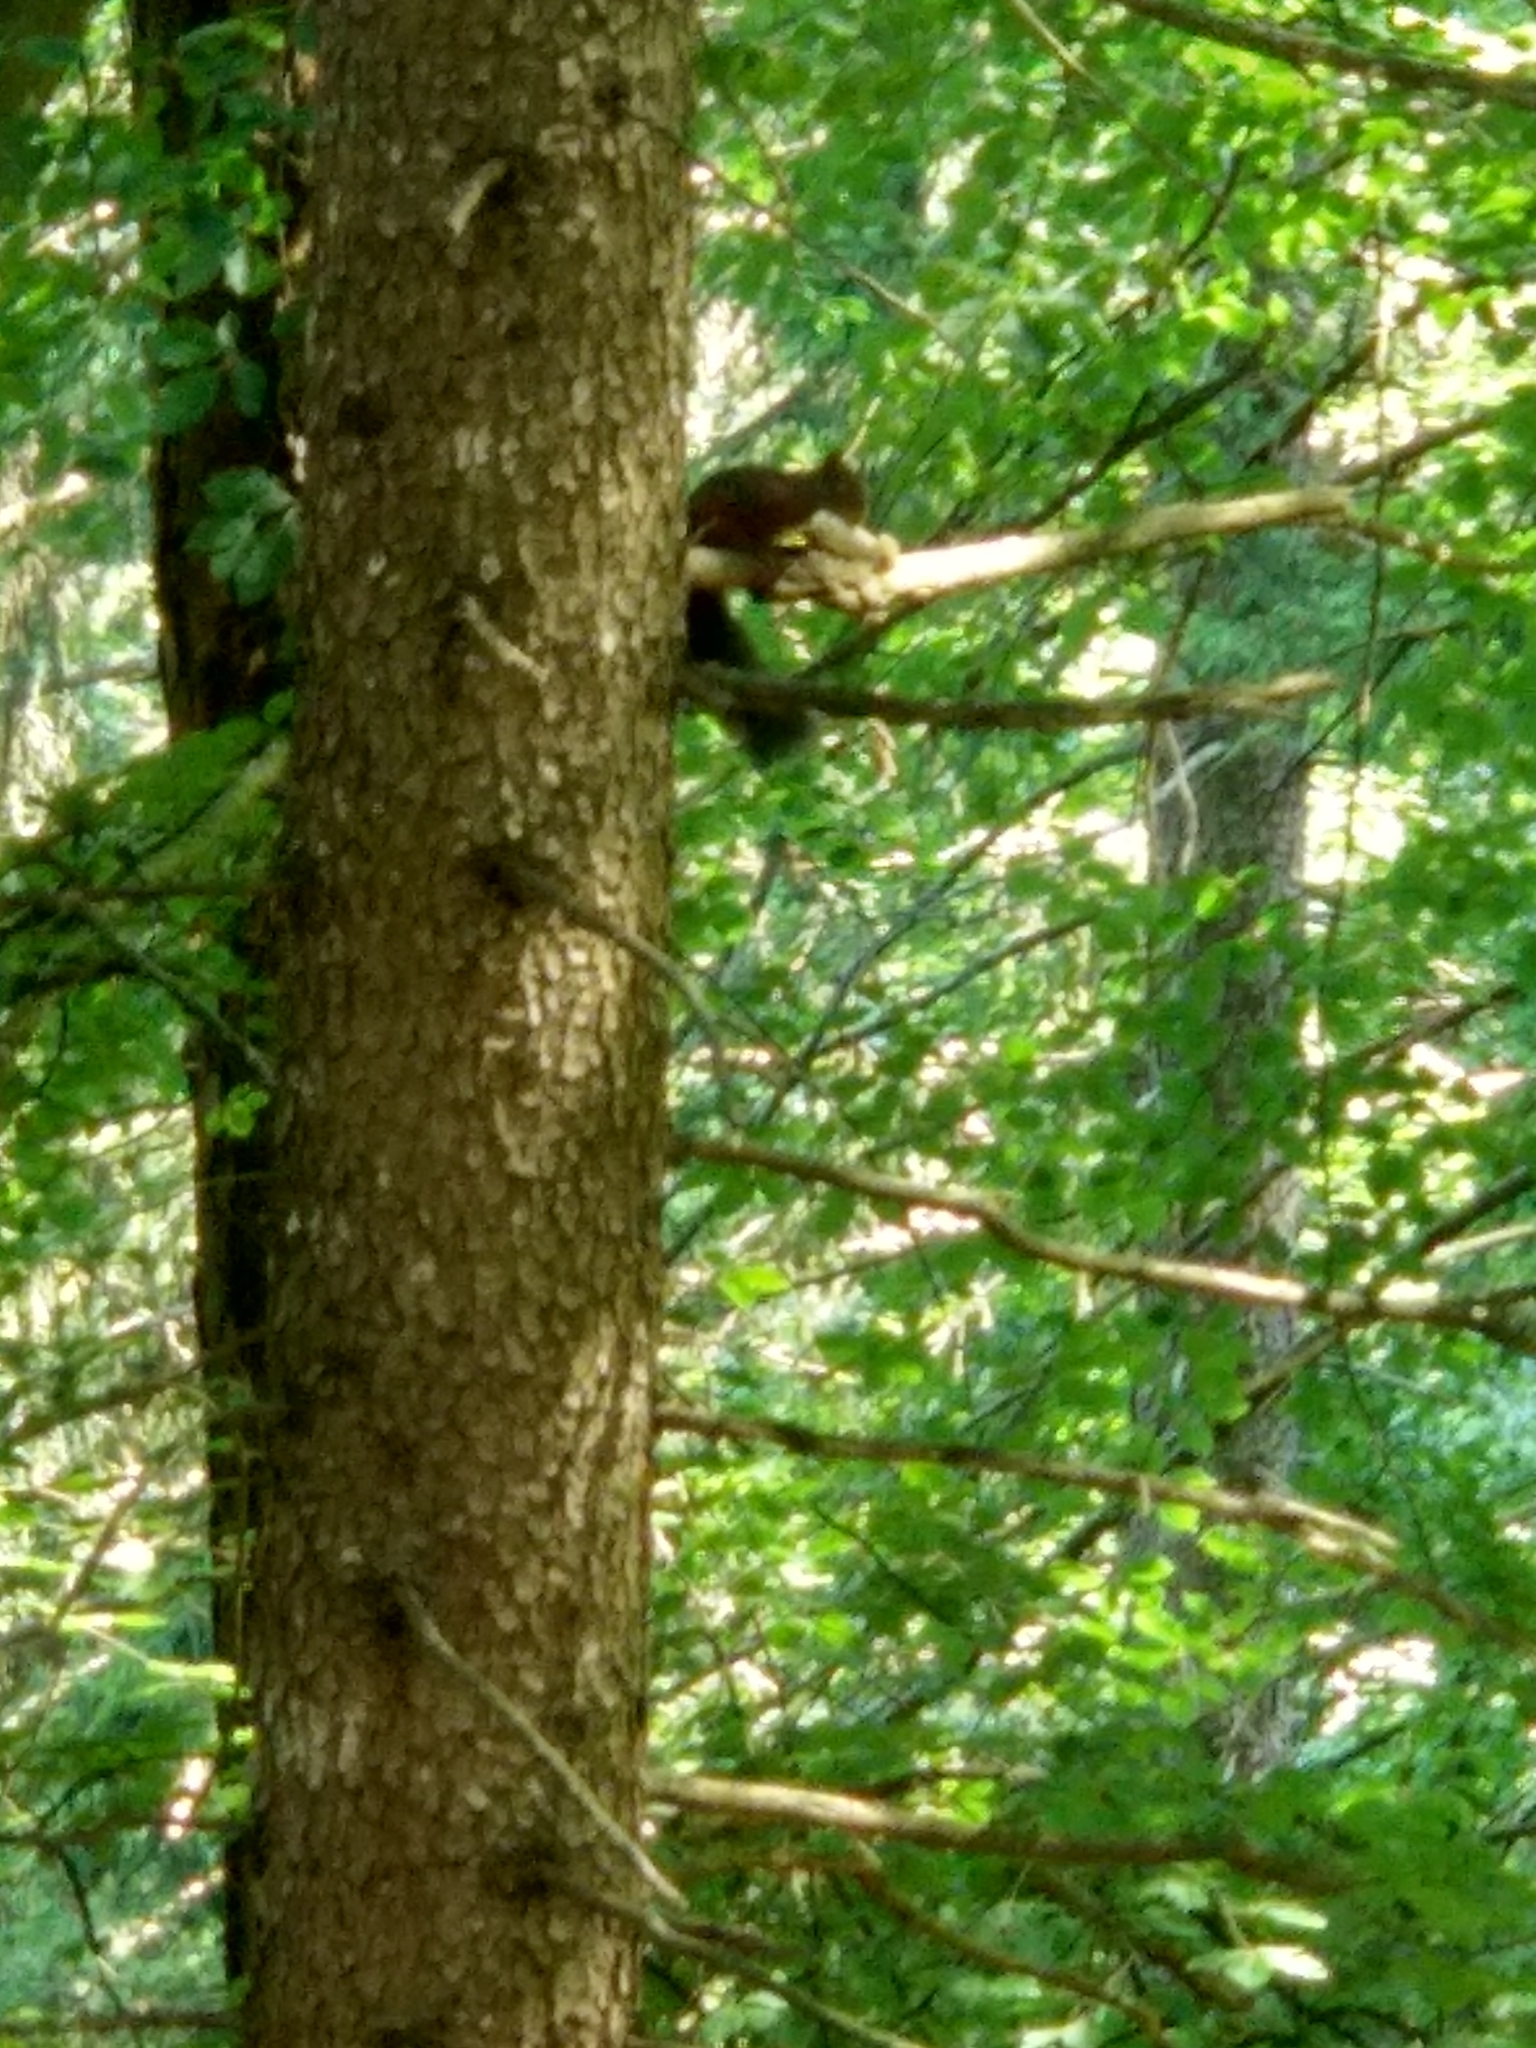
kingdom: Animalia
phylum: Chordata
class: Mammalia
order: Rodentia
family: Sciuridae
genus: Sciurus
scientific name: Sciurus vulgaris
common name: Eurasian red squirrel
